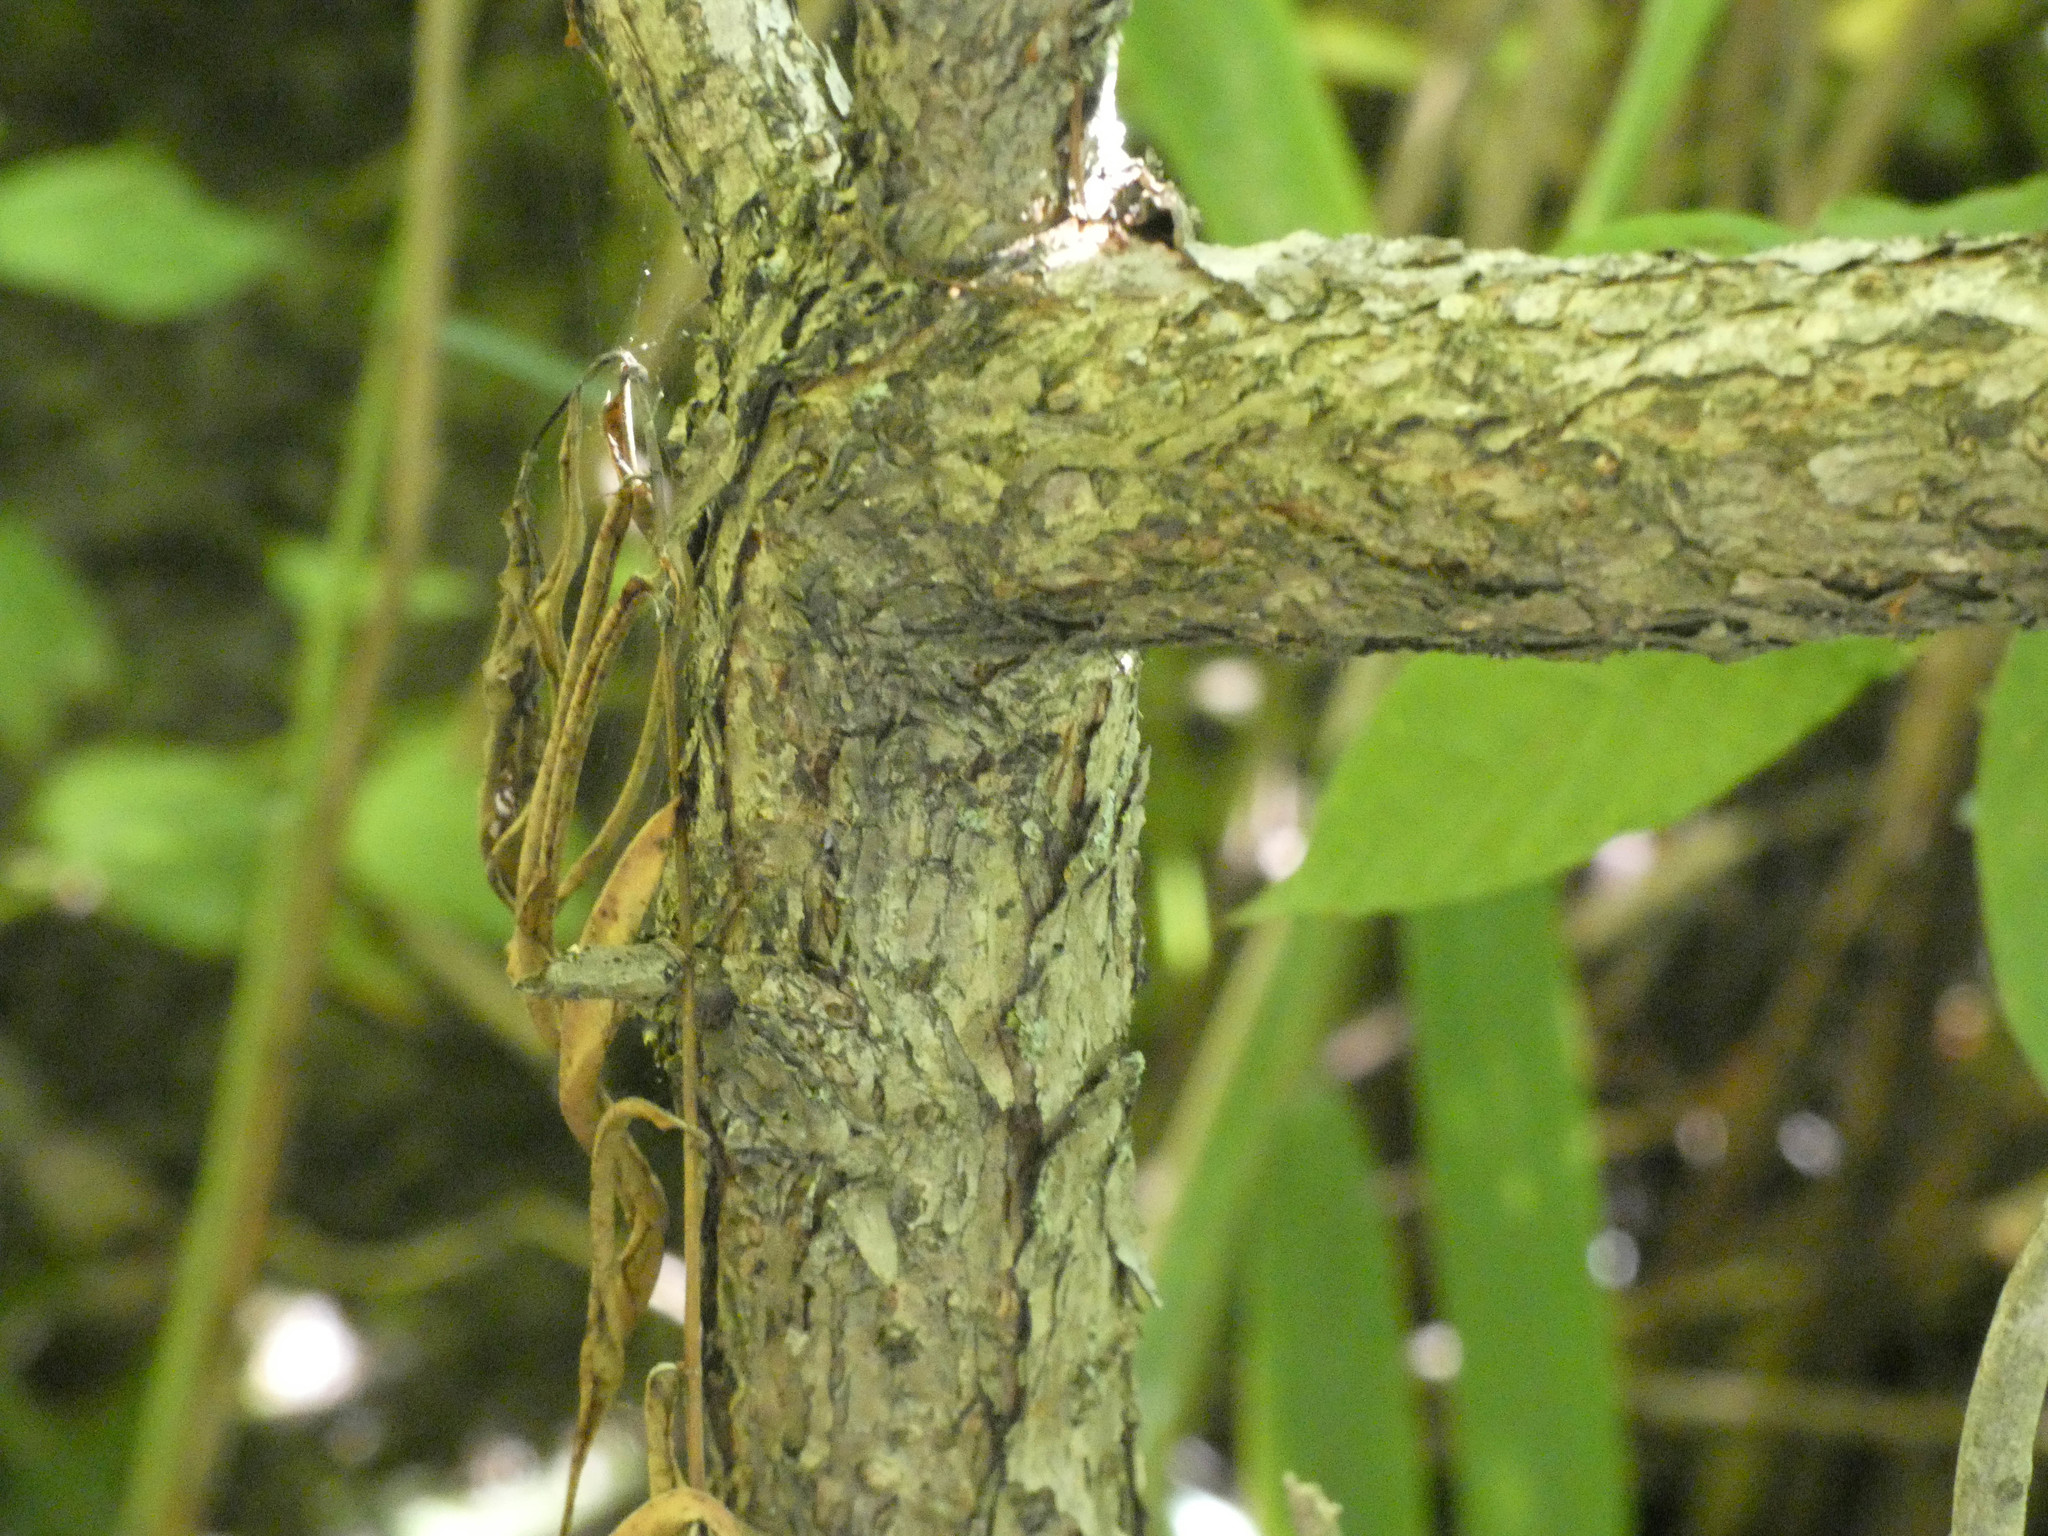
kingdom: Plantae
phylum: Tracheophyta
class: Magnoliopsida
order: Gentianales
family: Rubiaceae
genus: Cephalanthus
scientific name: Cephalanthus occidentalis
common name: Button-willow
